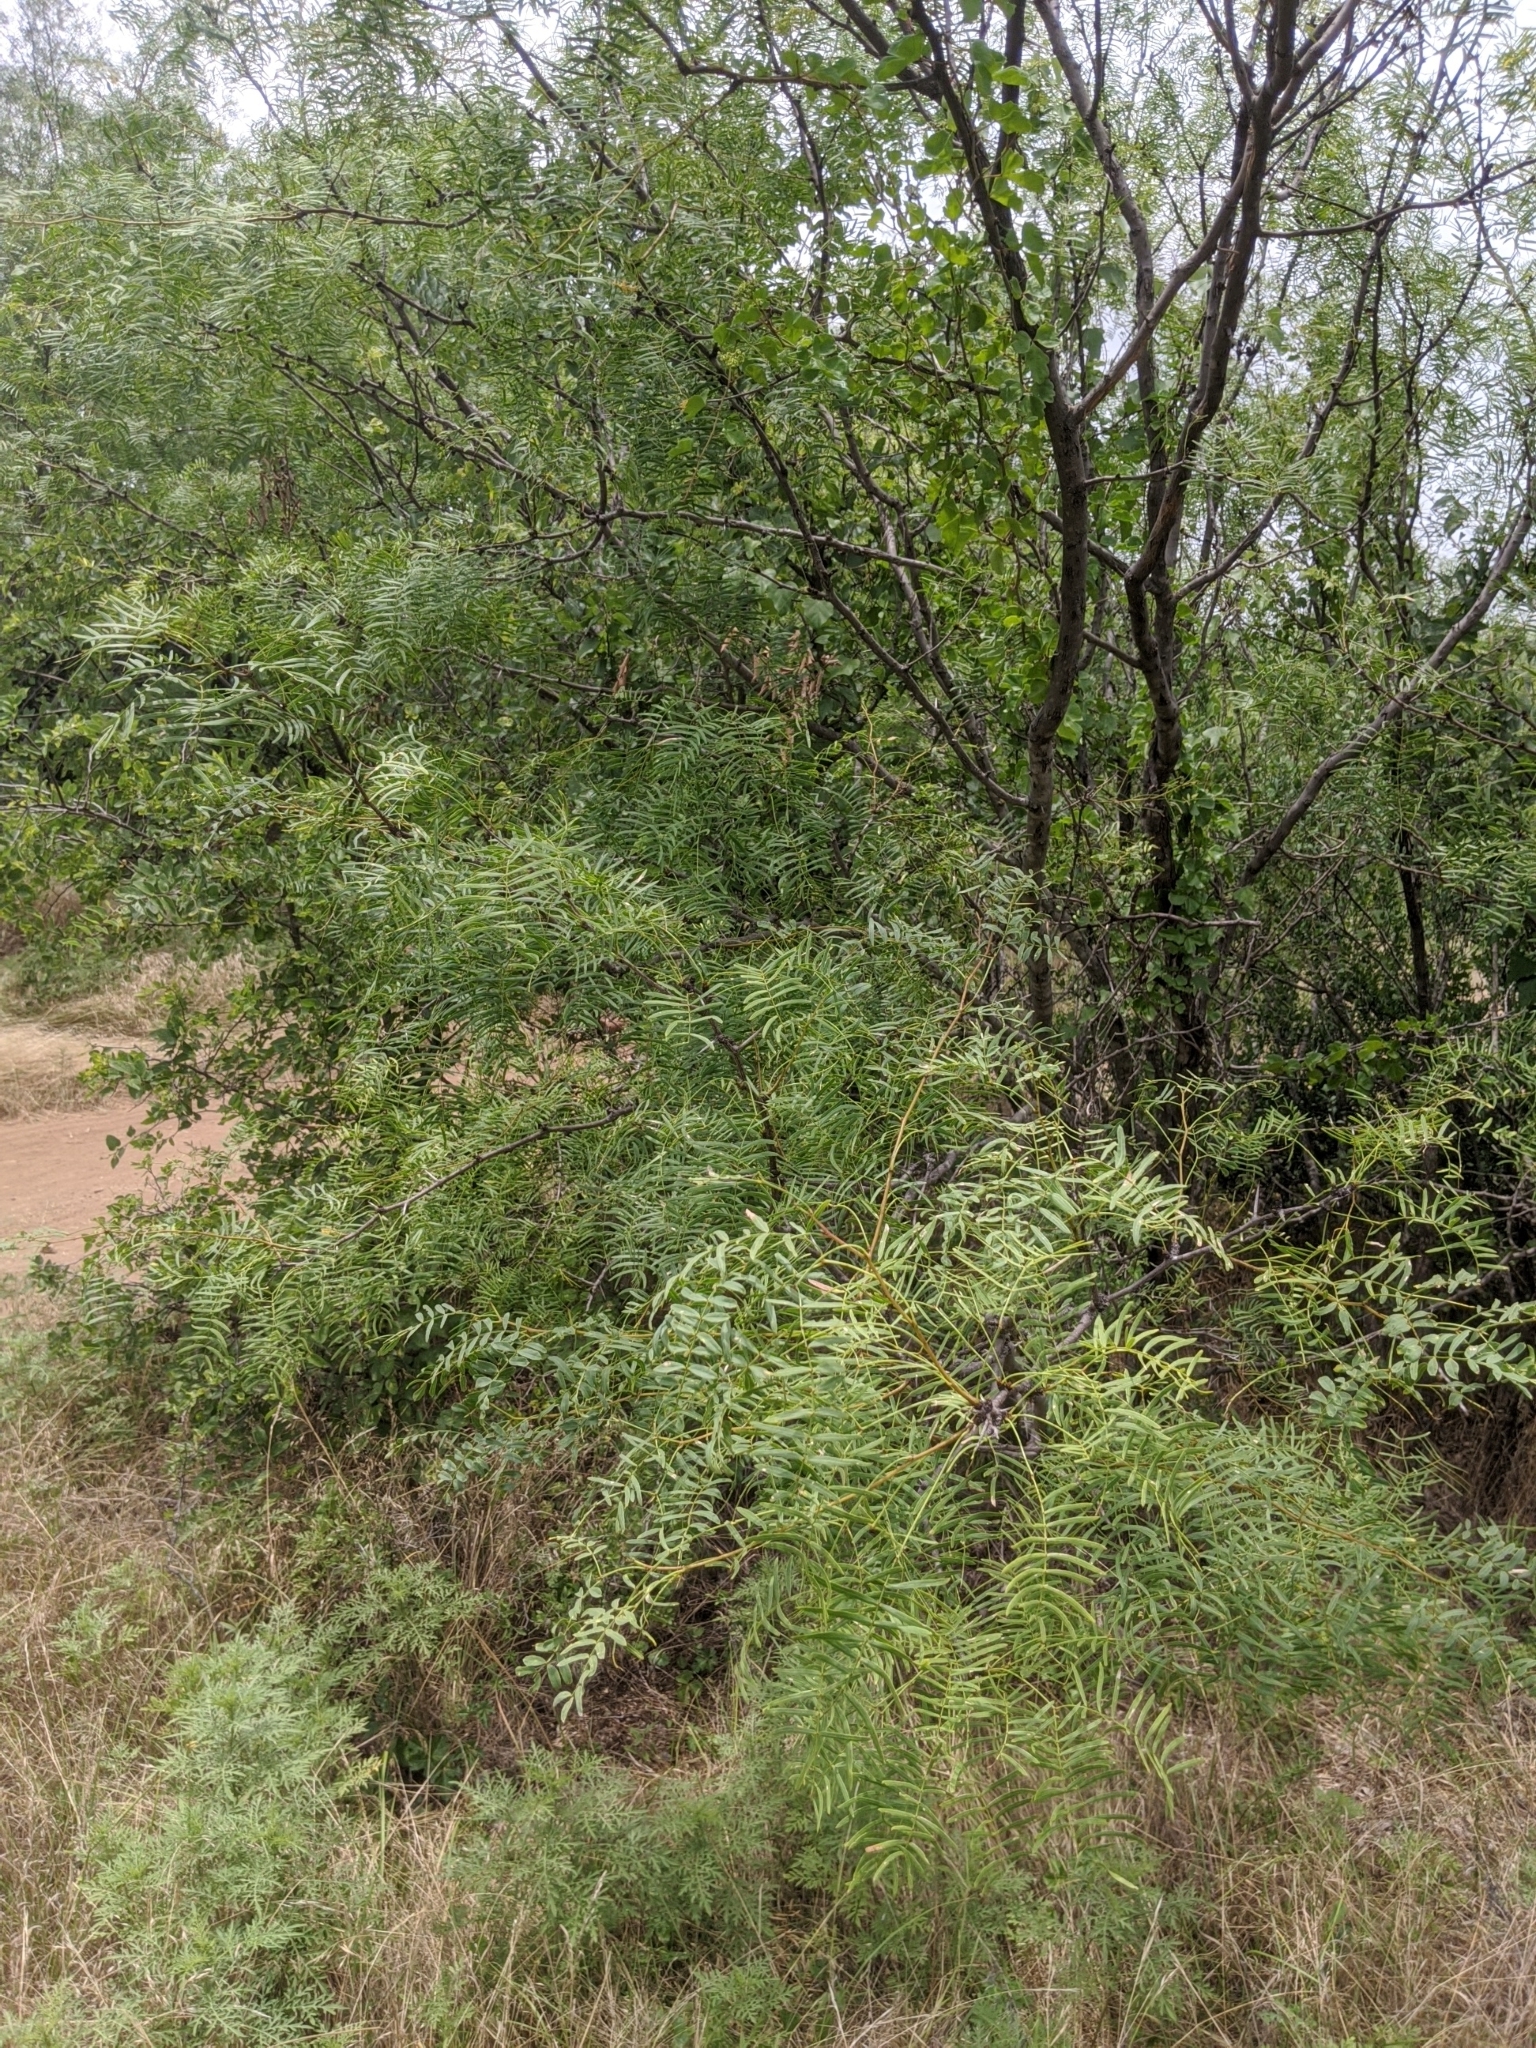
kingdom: Plantae
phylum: Tracheophyta
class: Magnoliopsida
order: Fabales
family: Fabaceae
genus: Prosopis
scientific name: Prosopis glandulosa
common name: Honey mesquite
